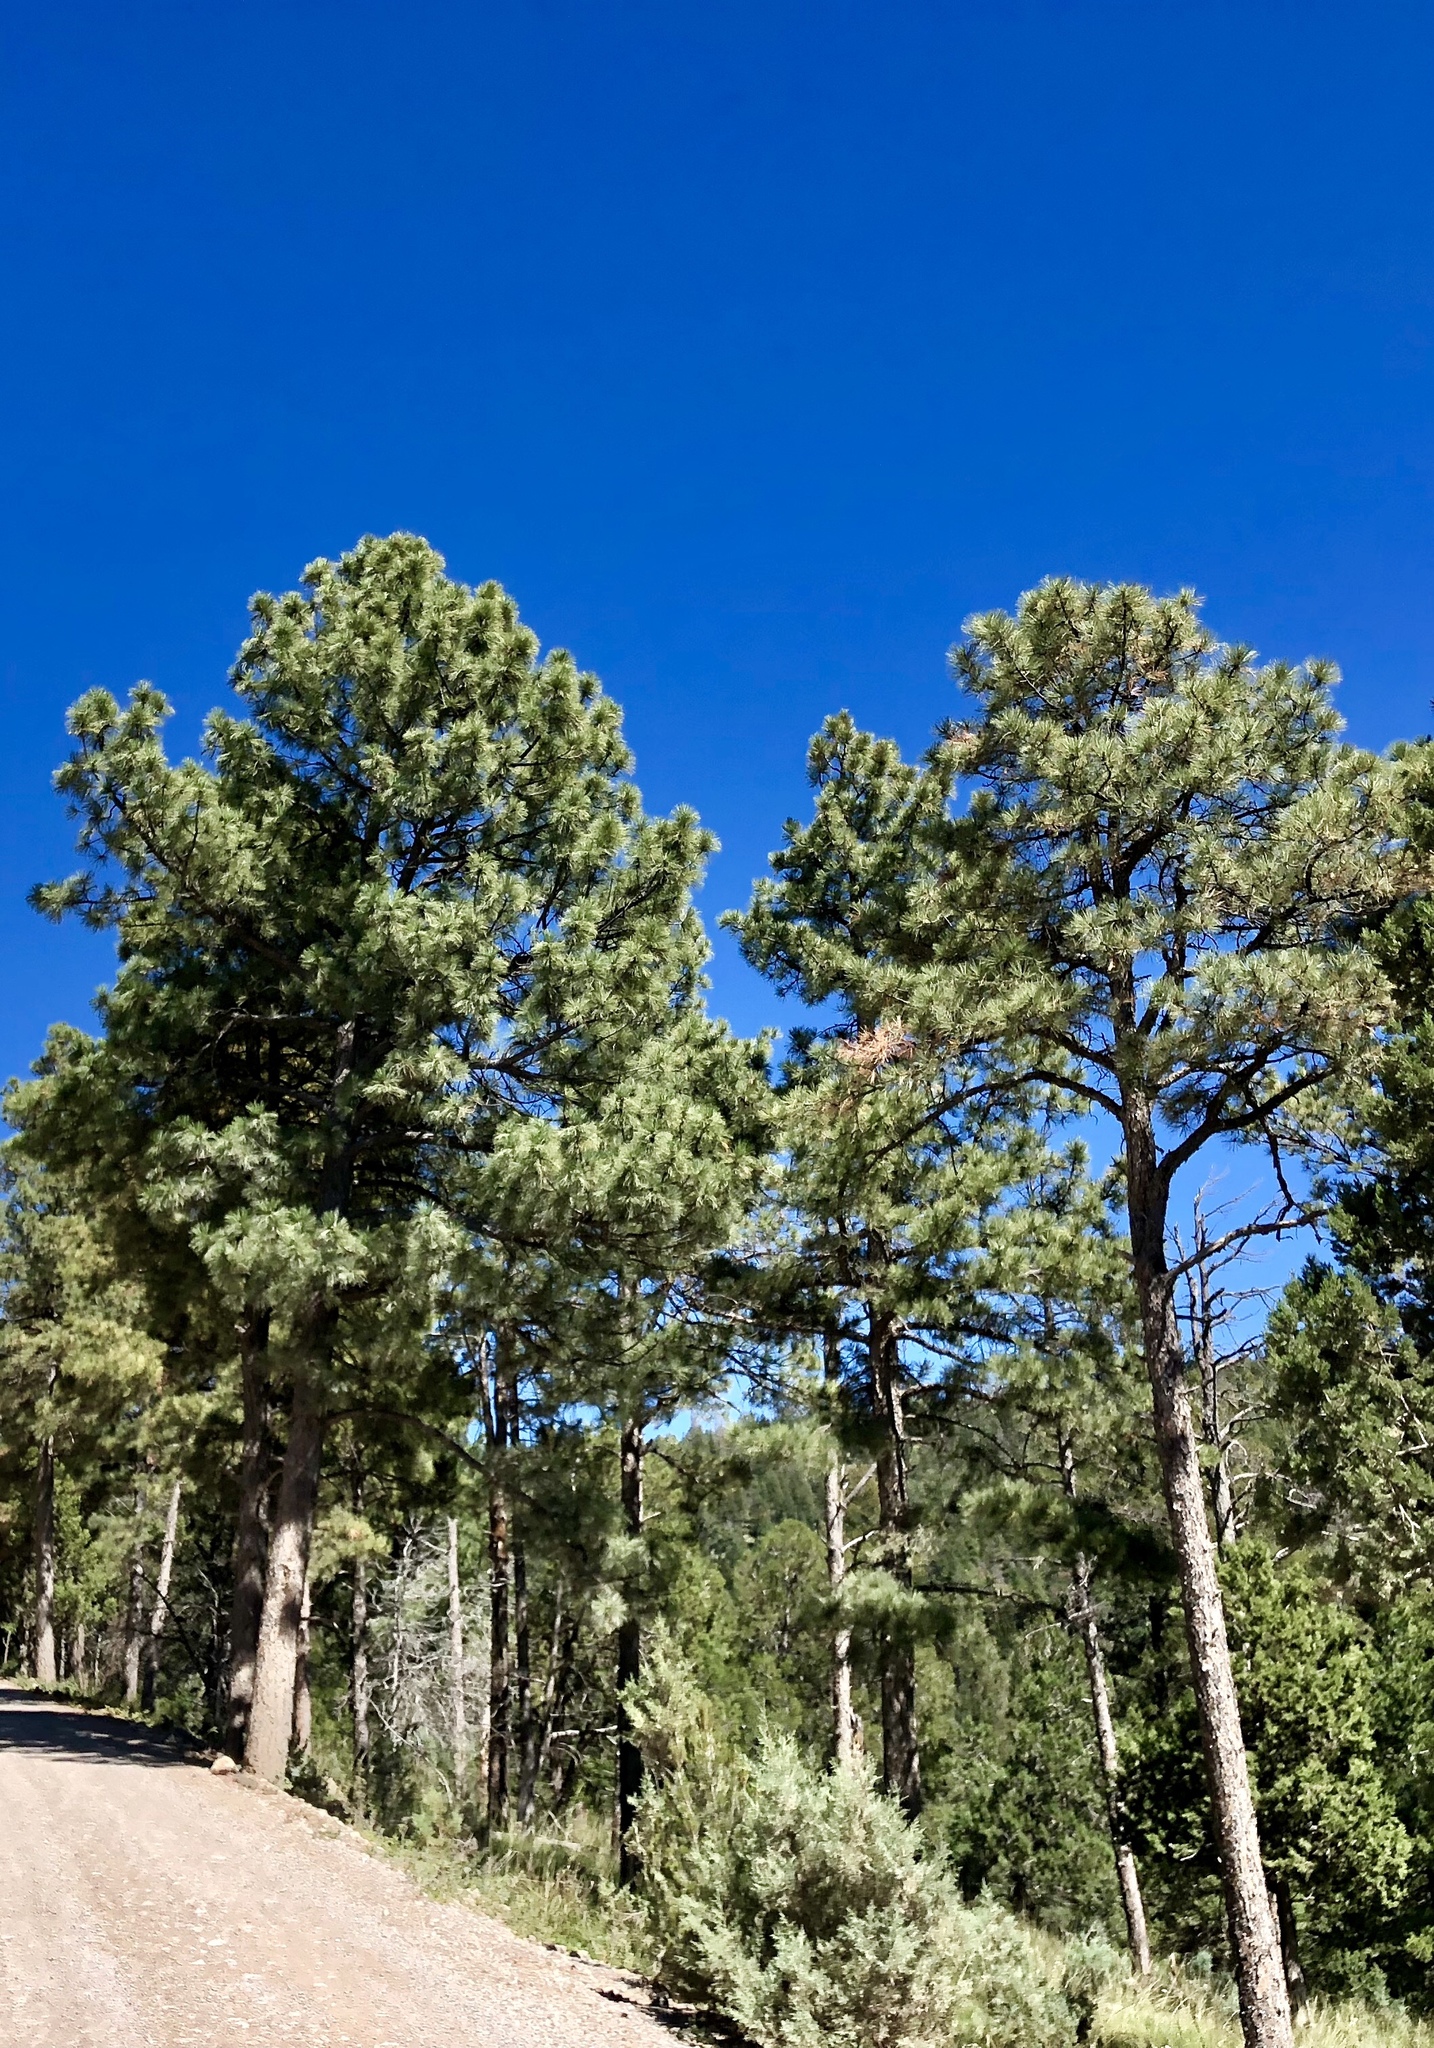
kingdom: Plantae
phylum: Tracheophyta
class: Pinopsida
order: Pinales
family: Pinaceae
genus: Pinus
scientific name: Pinus ponderosa
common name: Western yellow-pine
